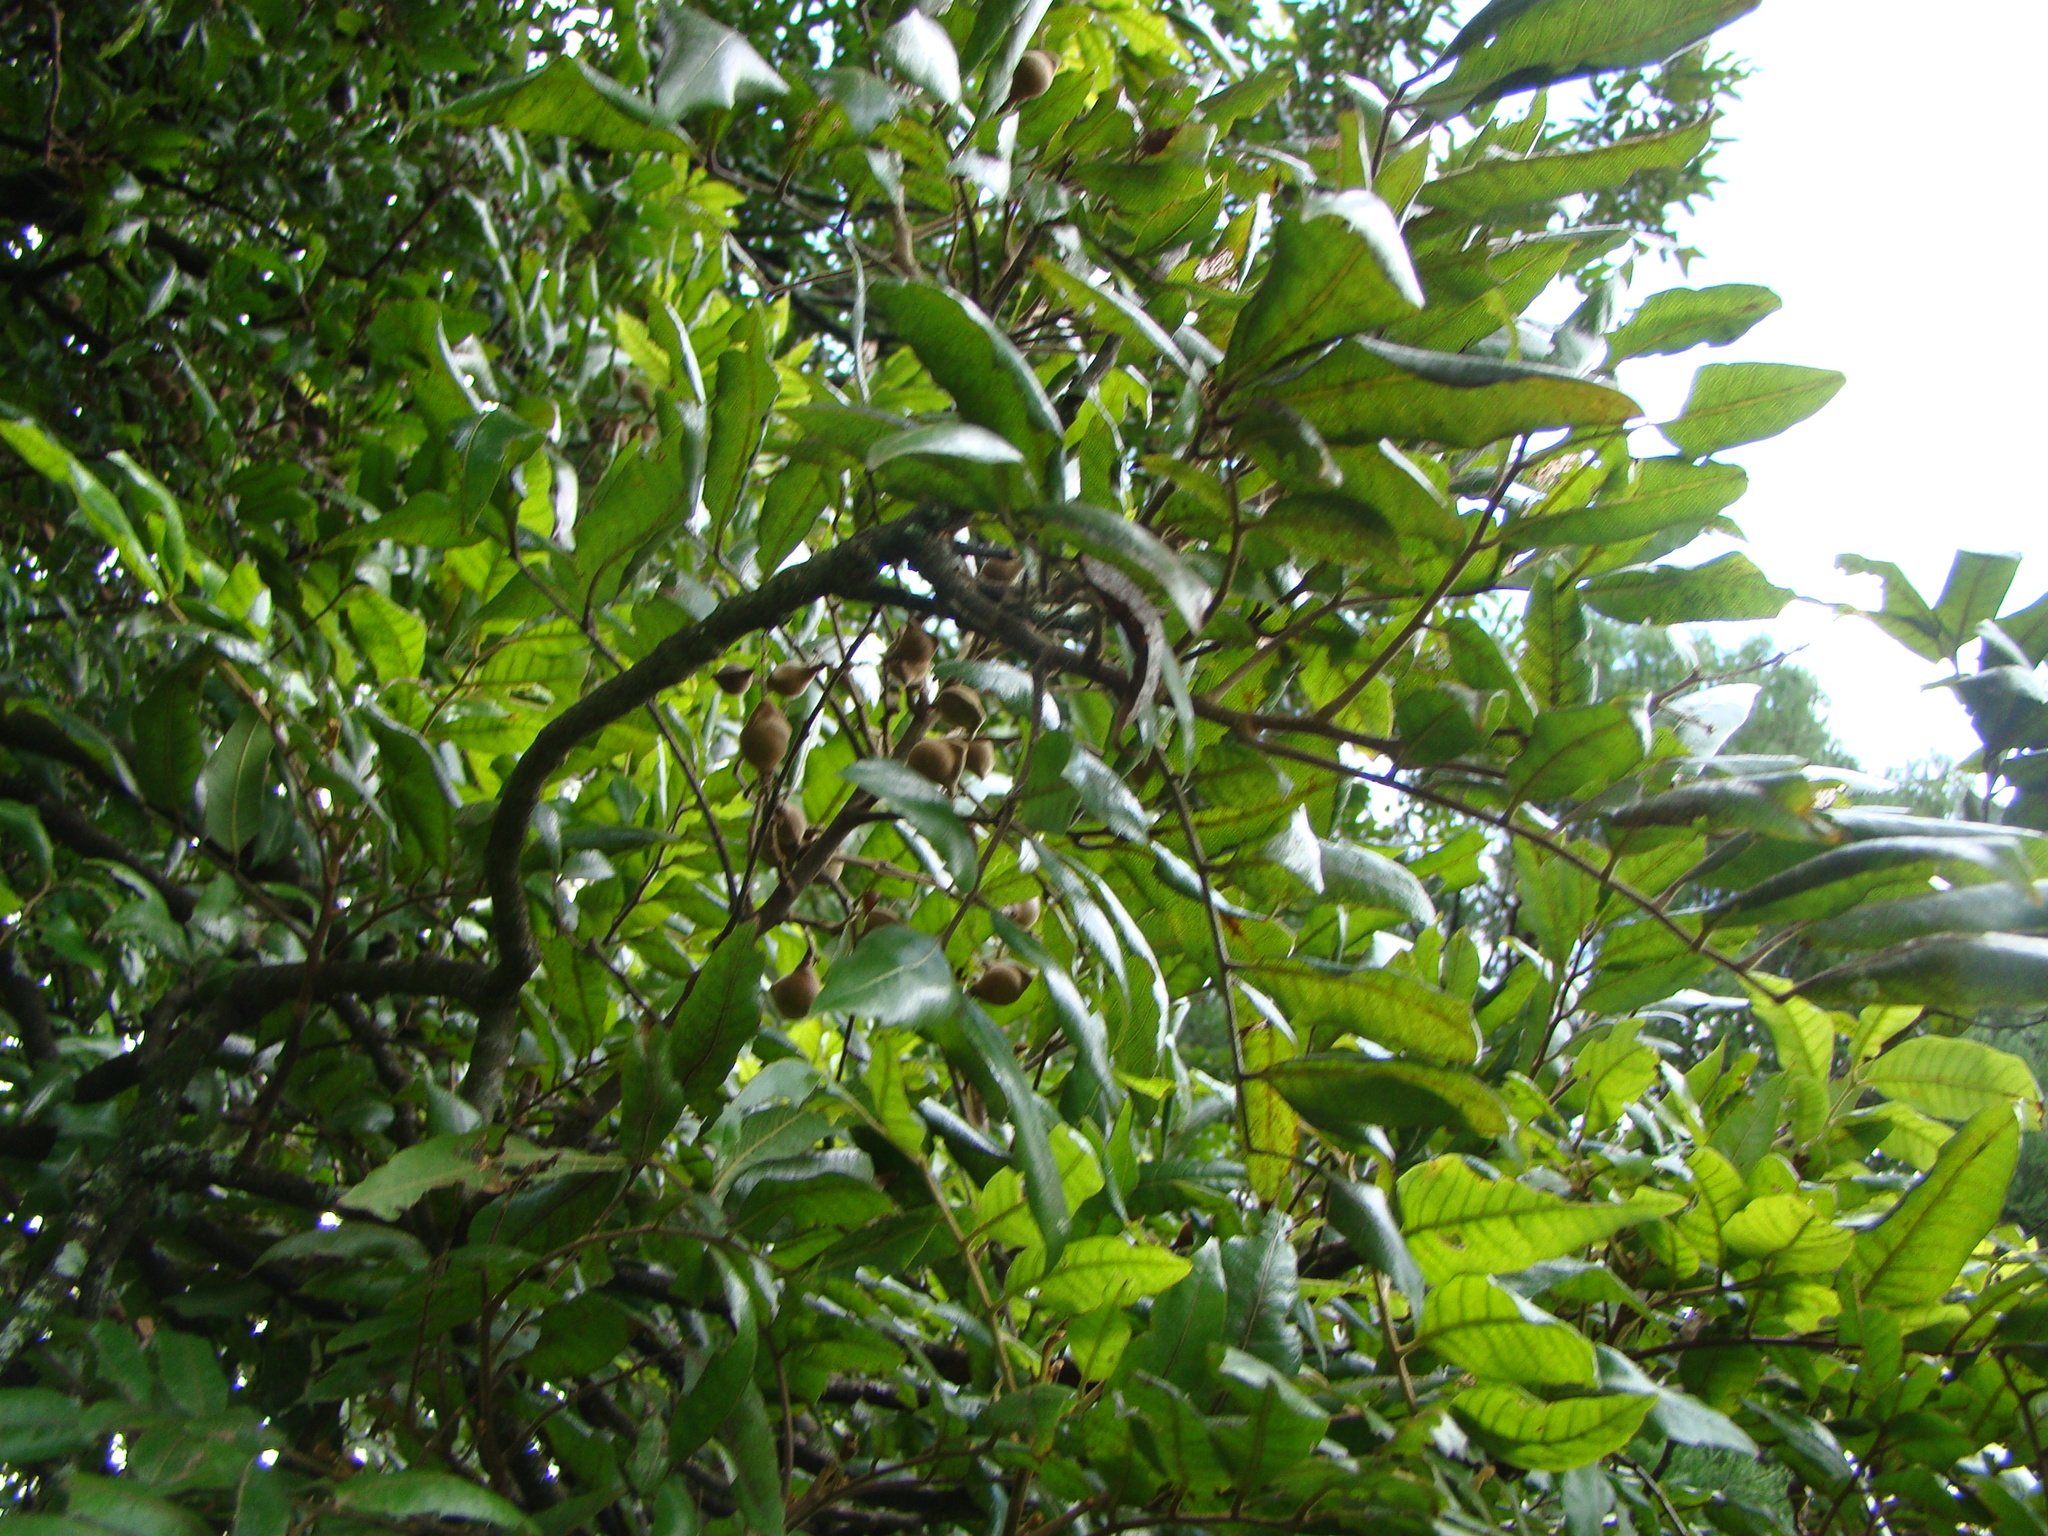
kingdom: Plantae
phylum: Tracheophyta
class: Magnoliopsida
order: Sapindales
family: Sapindaceae
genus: Alectryon
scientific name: Alectryon excelsus
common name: Three kings titoki
